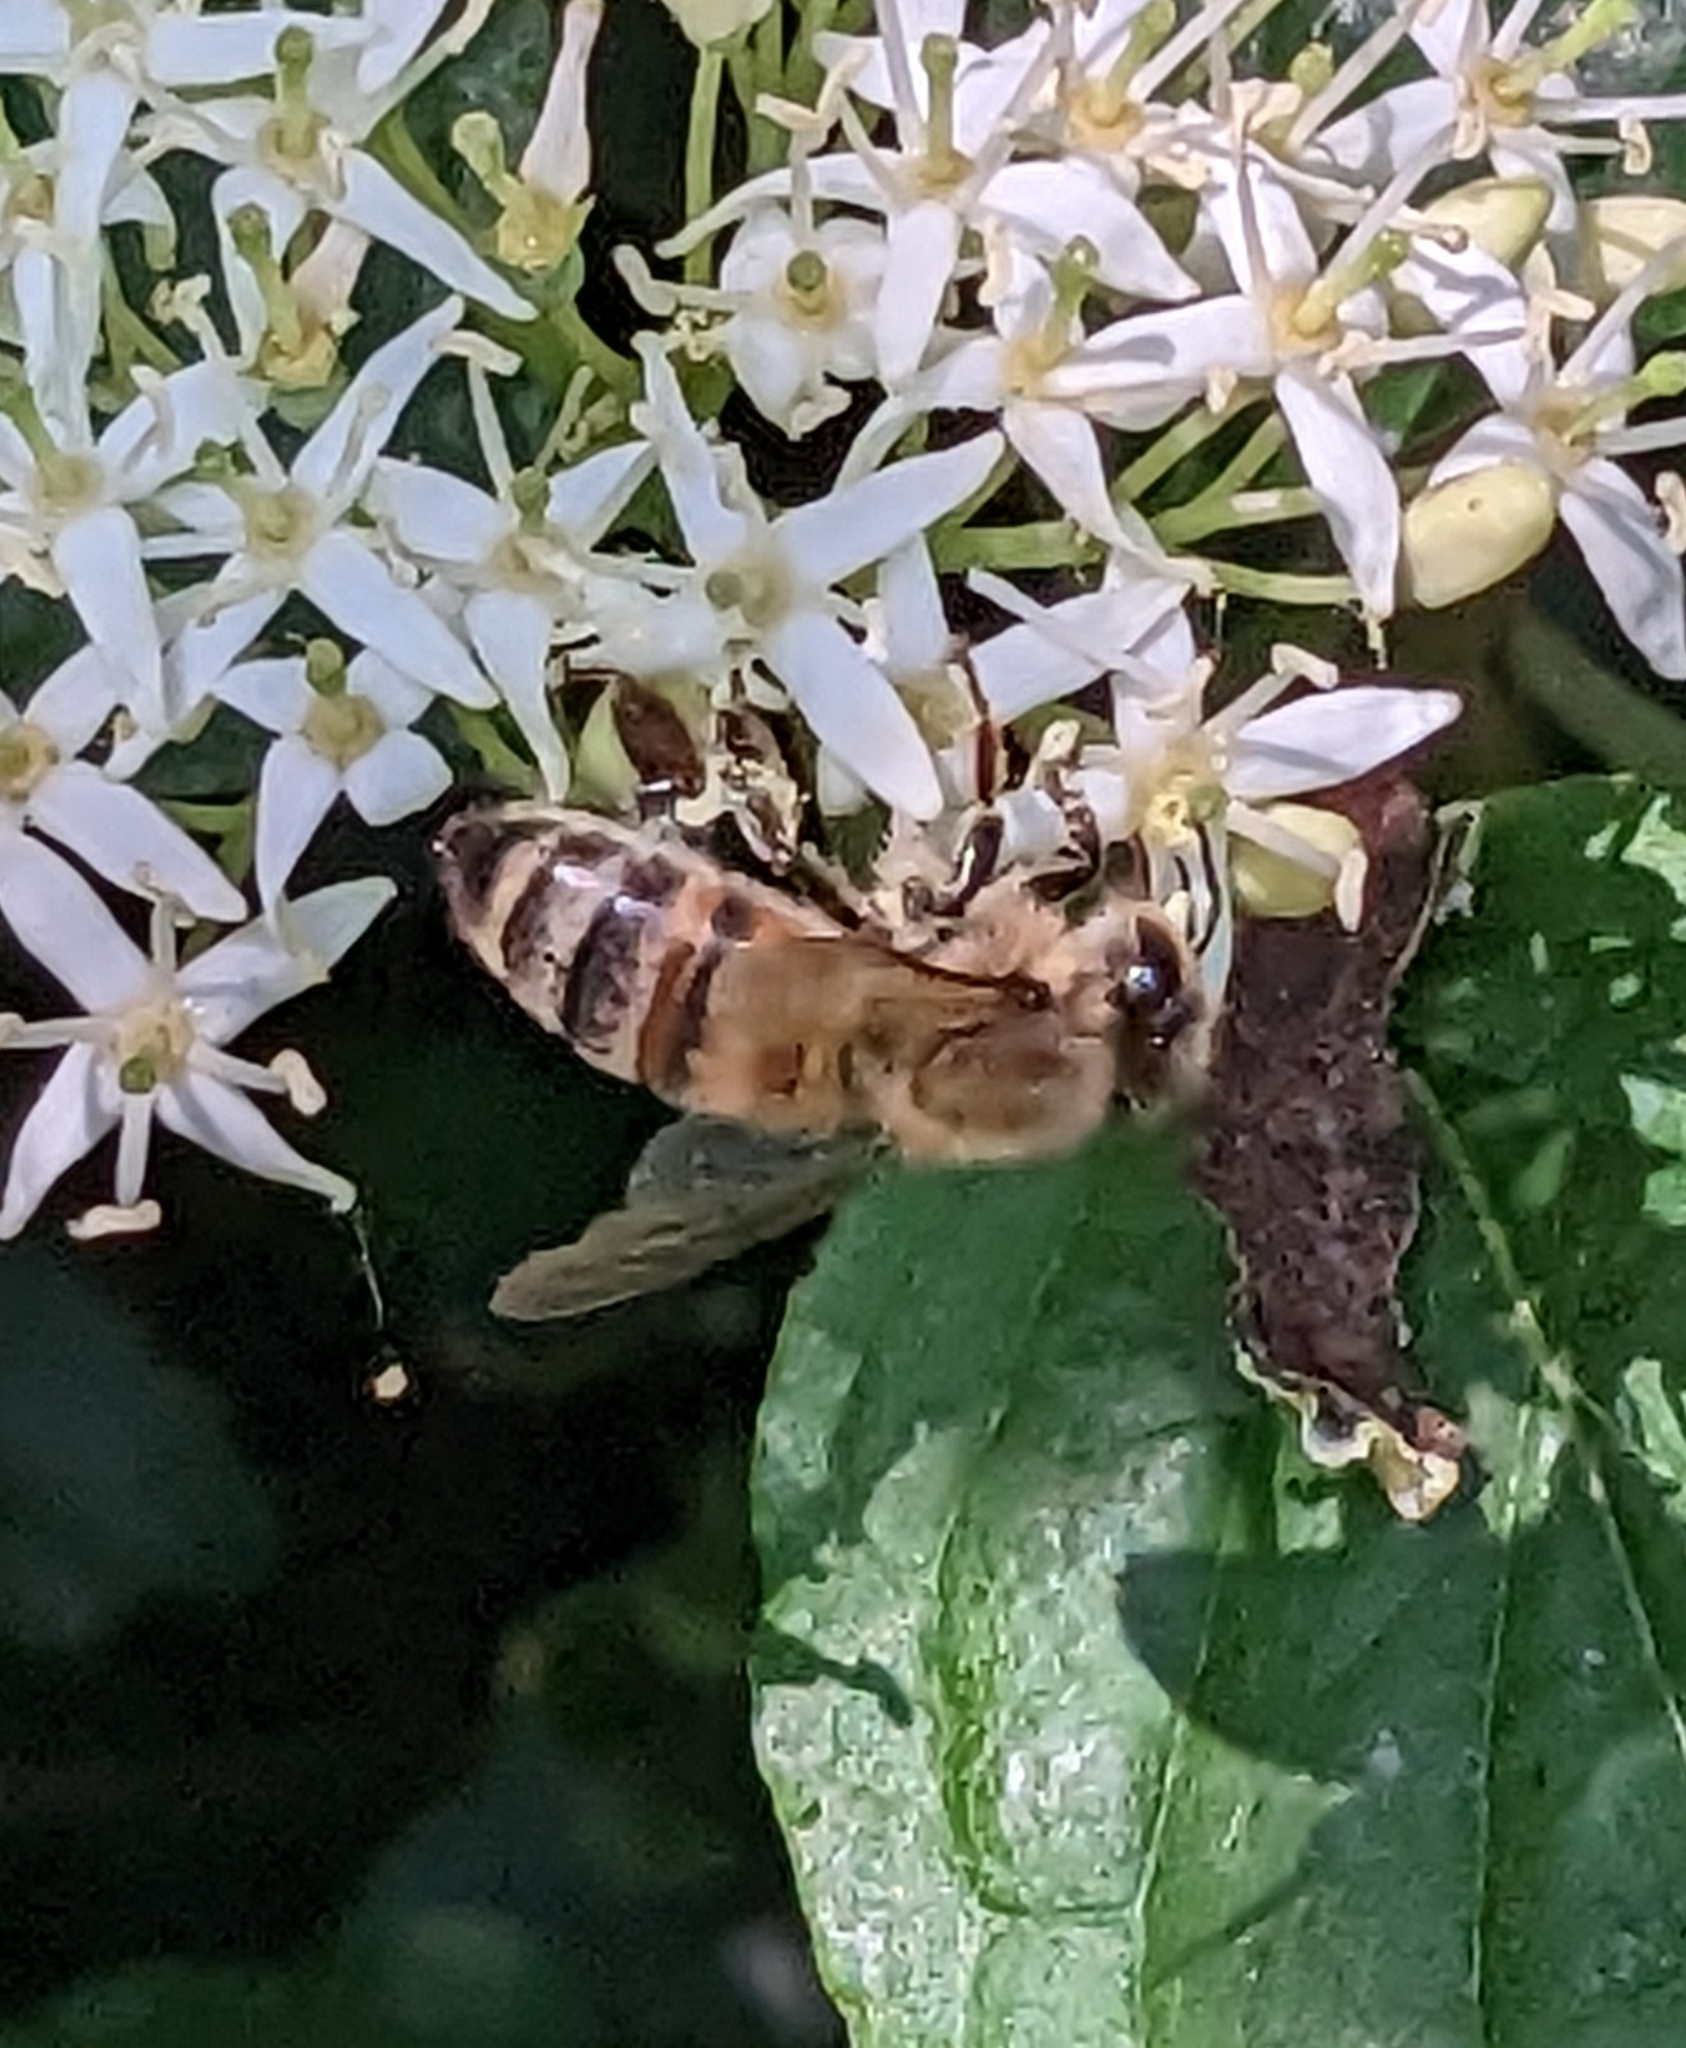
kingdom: Animalia
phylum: Arthropoda
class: Insecta
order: Hymenoptera
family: Apidae
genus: Apis
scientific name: Apis mellifera
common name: Honey bee
